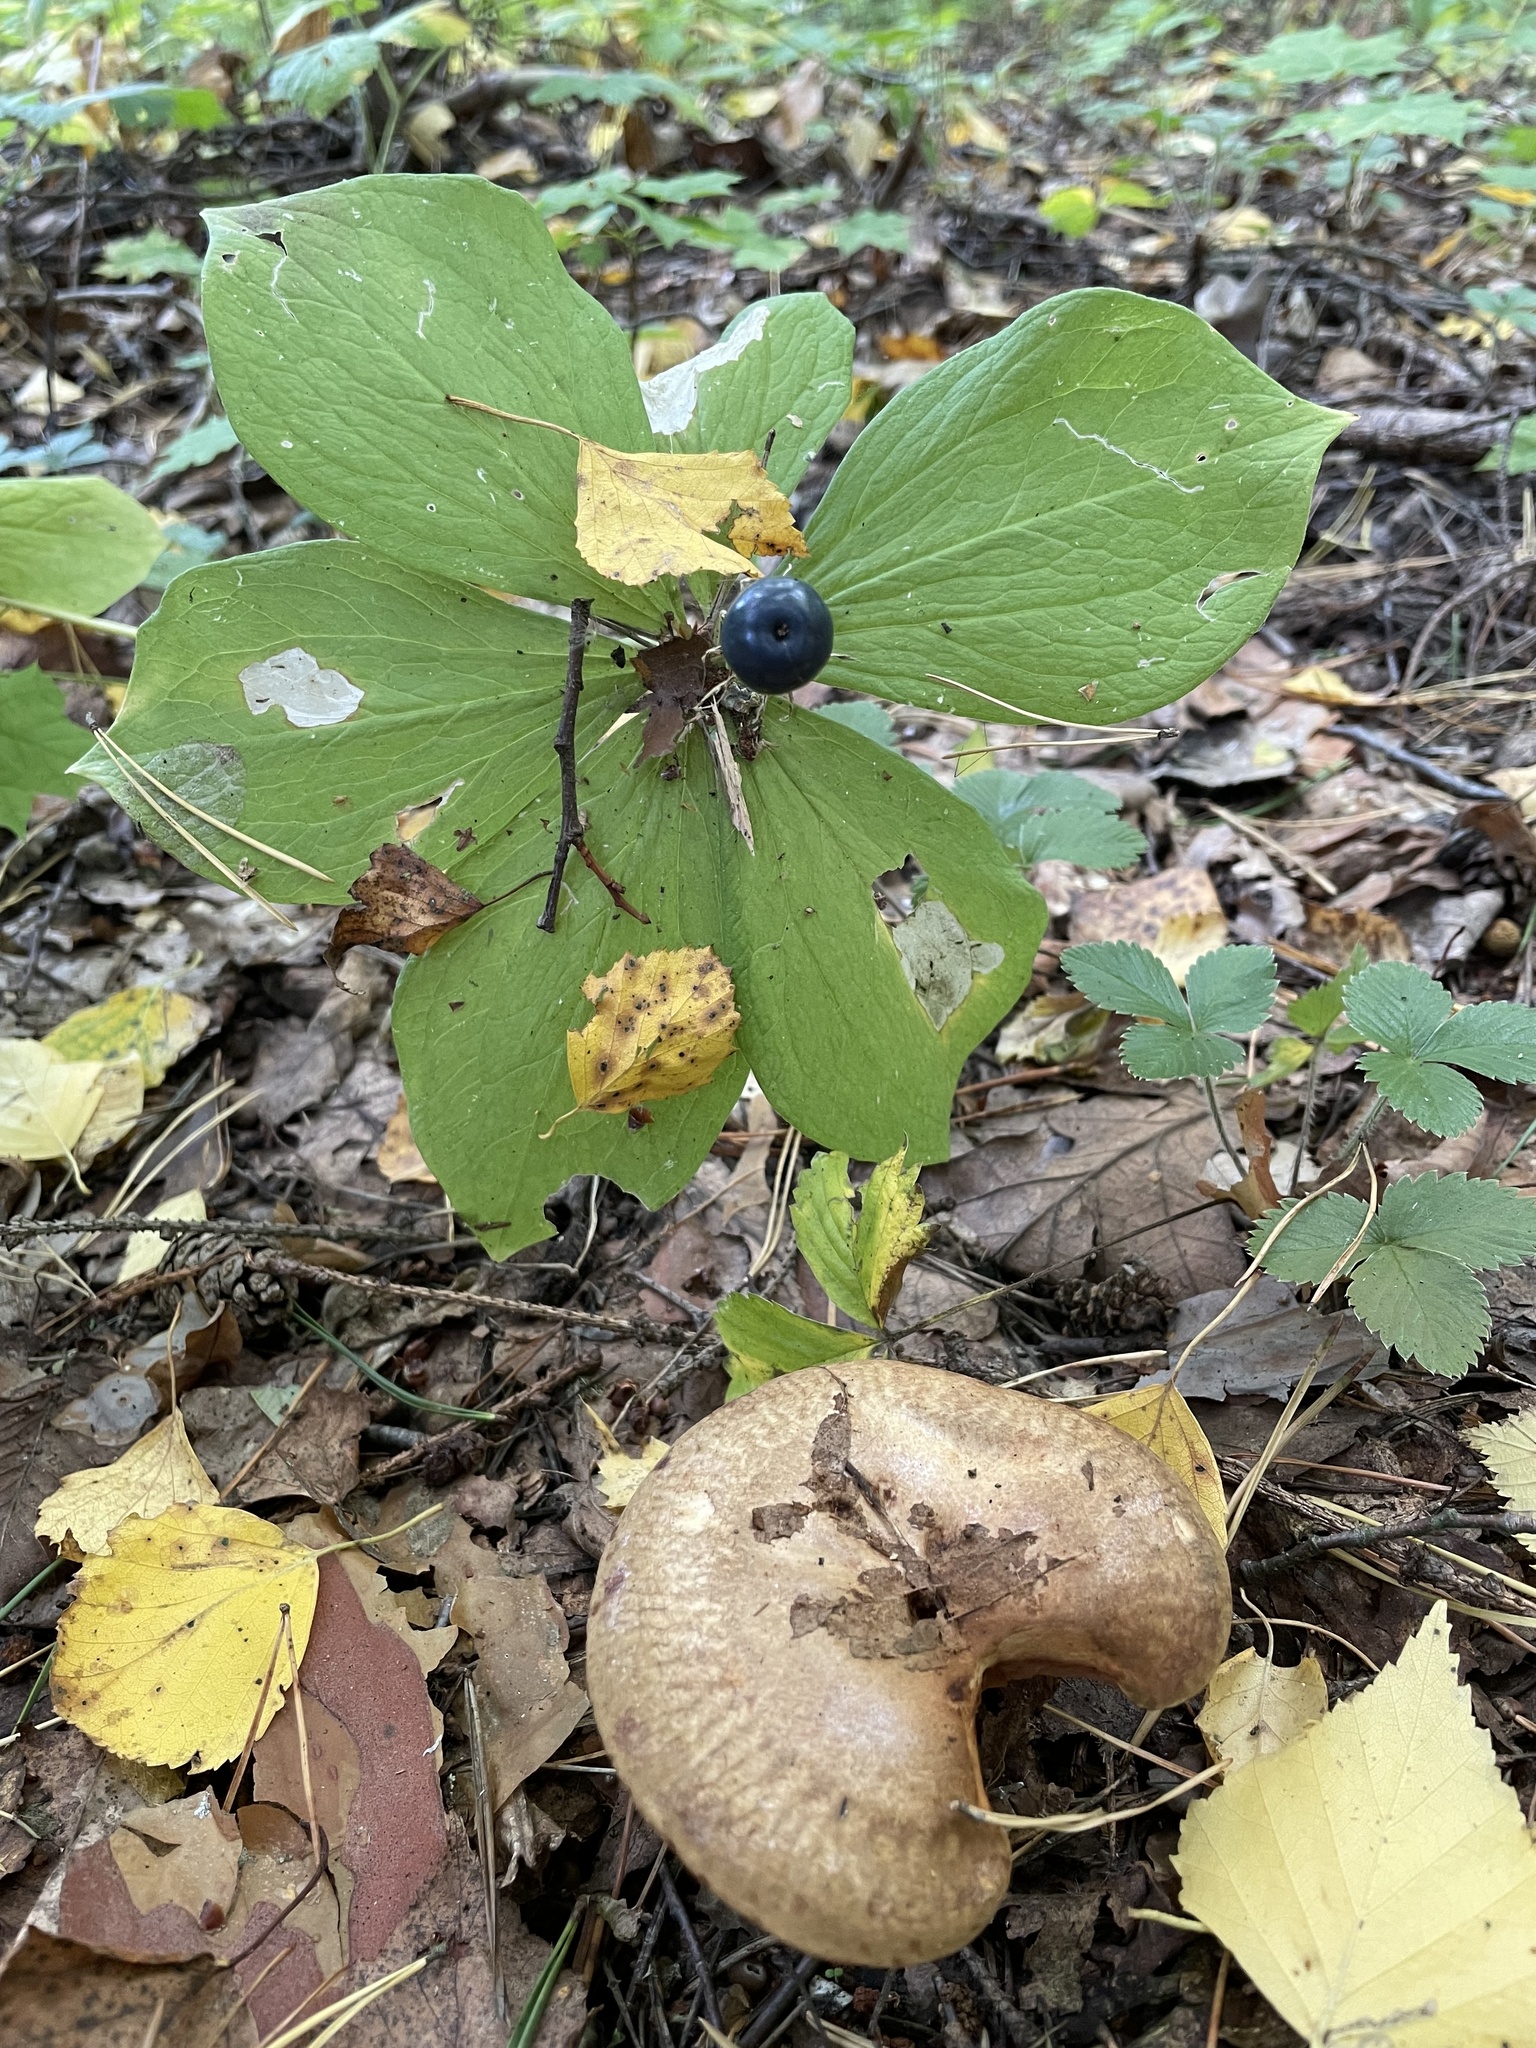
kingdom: Plantae
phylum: Tracheophyta
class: Liliopsida
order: Liliales
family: Melanthiaceae
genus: Paris
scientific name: Paris quadrifolia
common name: Herb-paris
